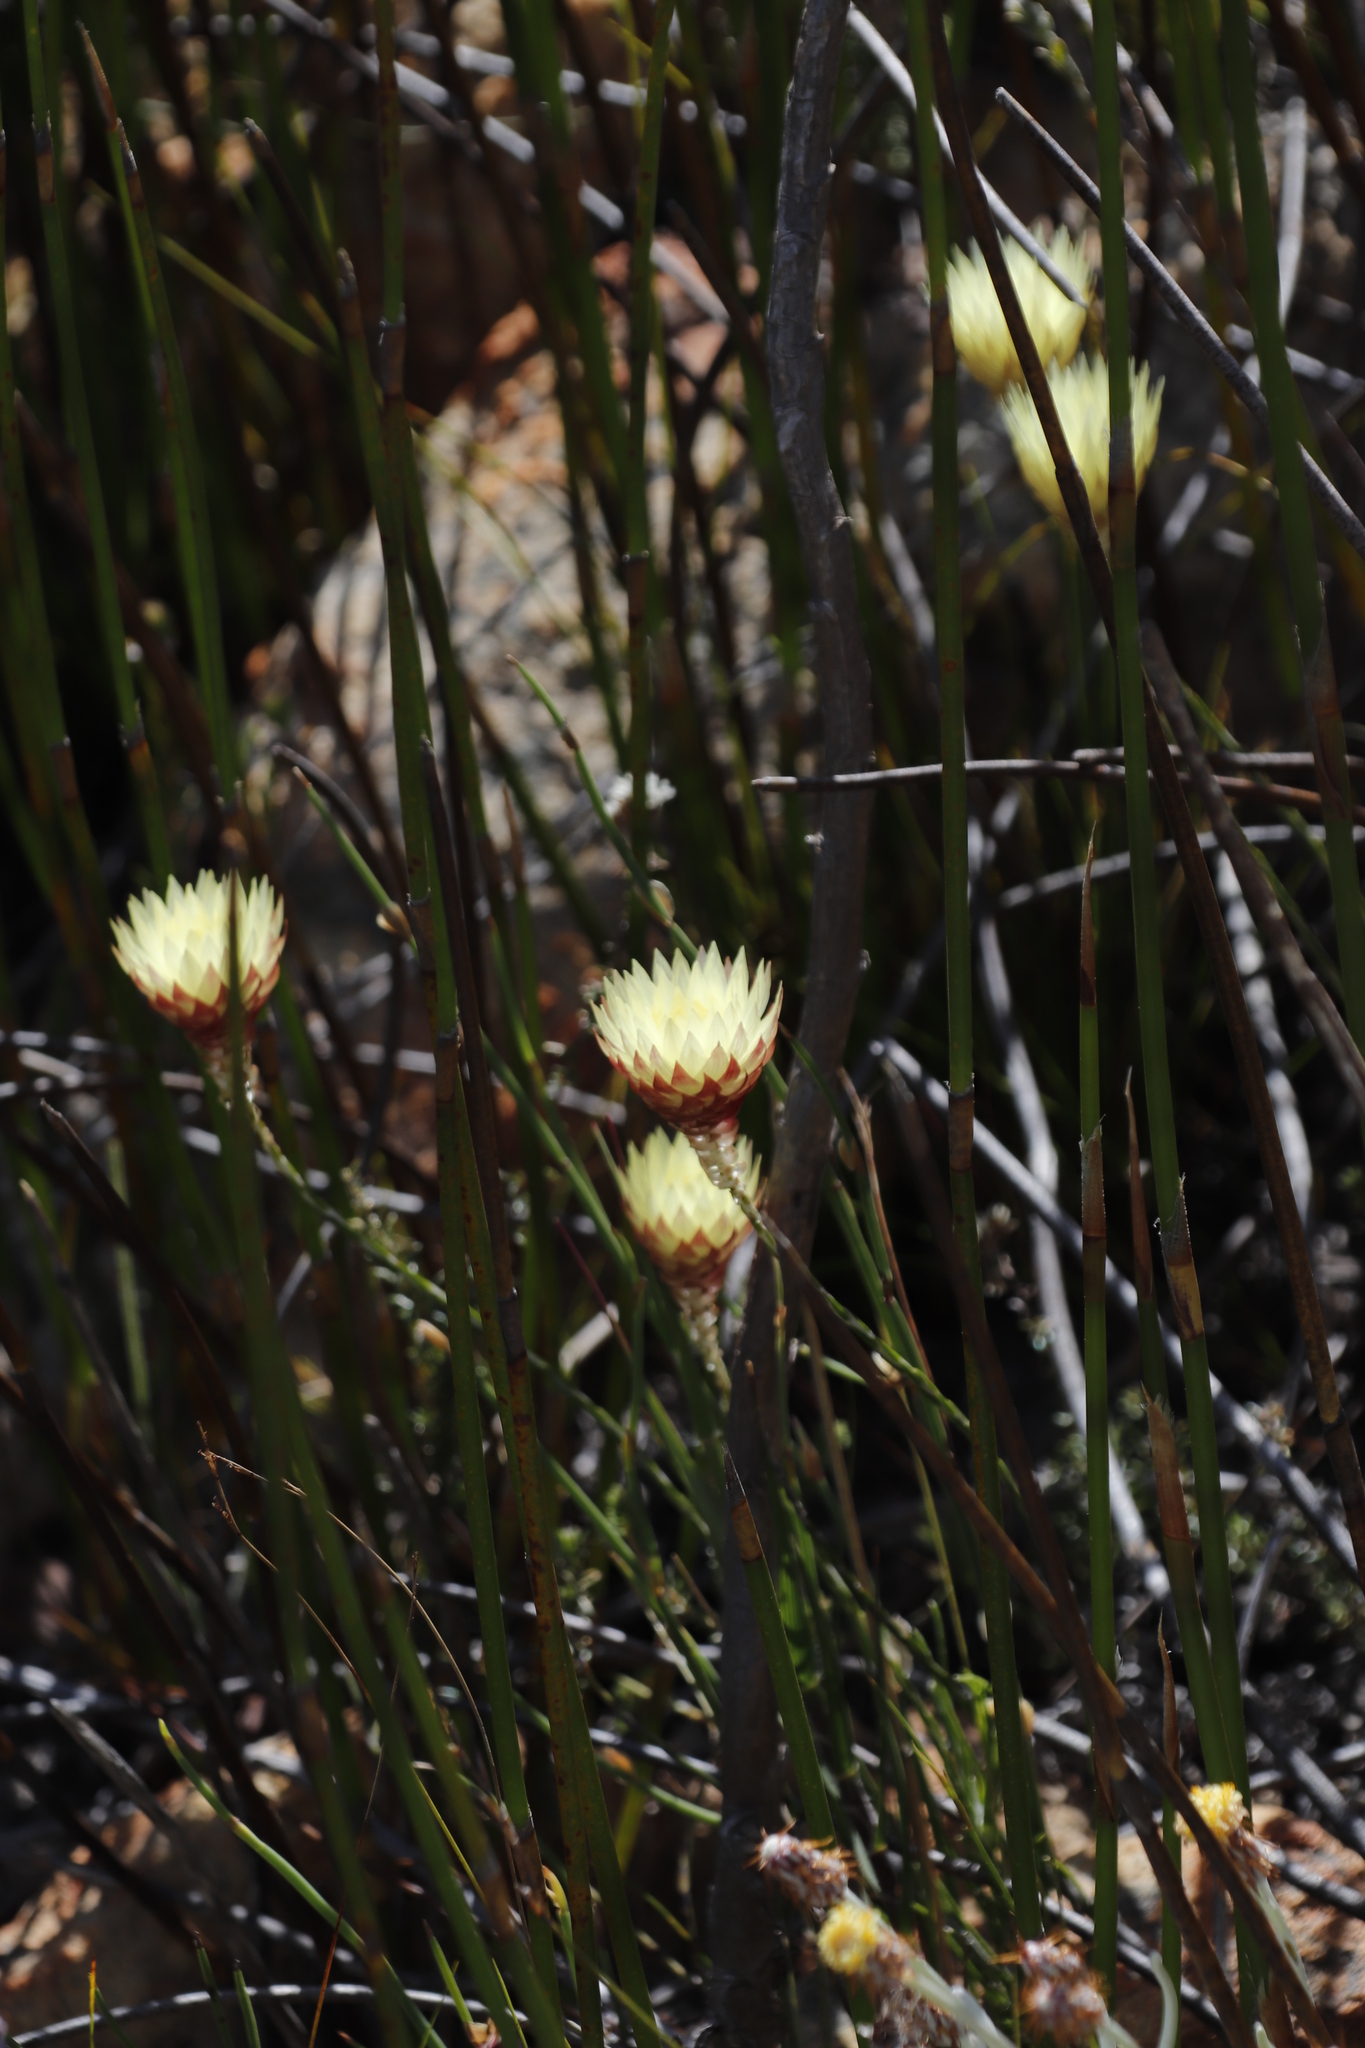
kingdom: Plantae
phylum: Tracheophyta
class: Magnoliopsida
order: Asterales
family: Asteraceae
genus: Edmondia
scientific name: Edmondia sesamoides
